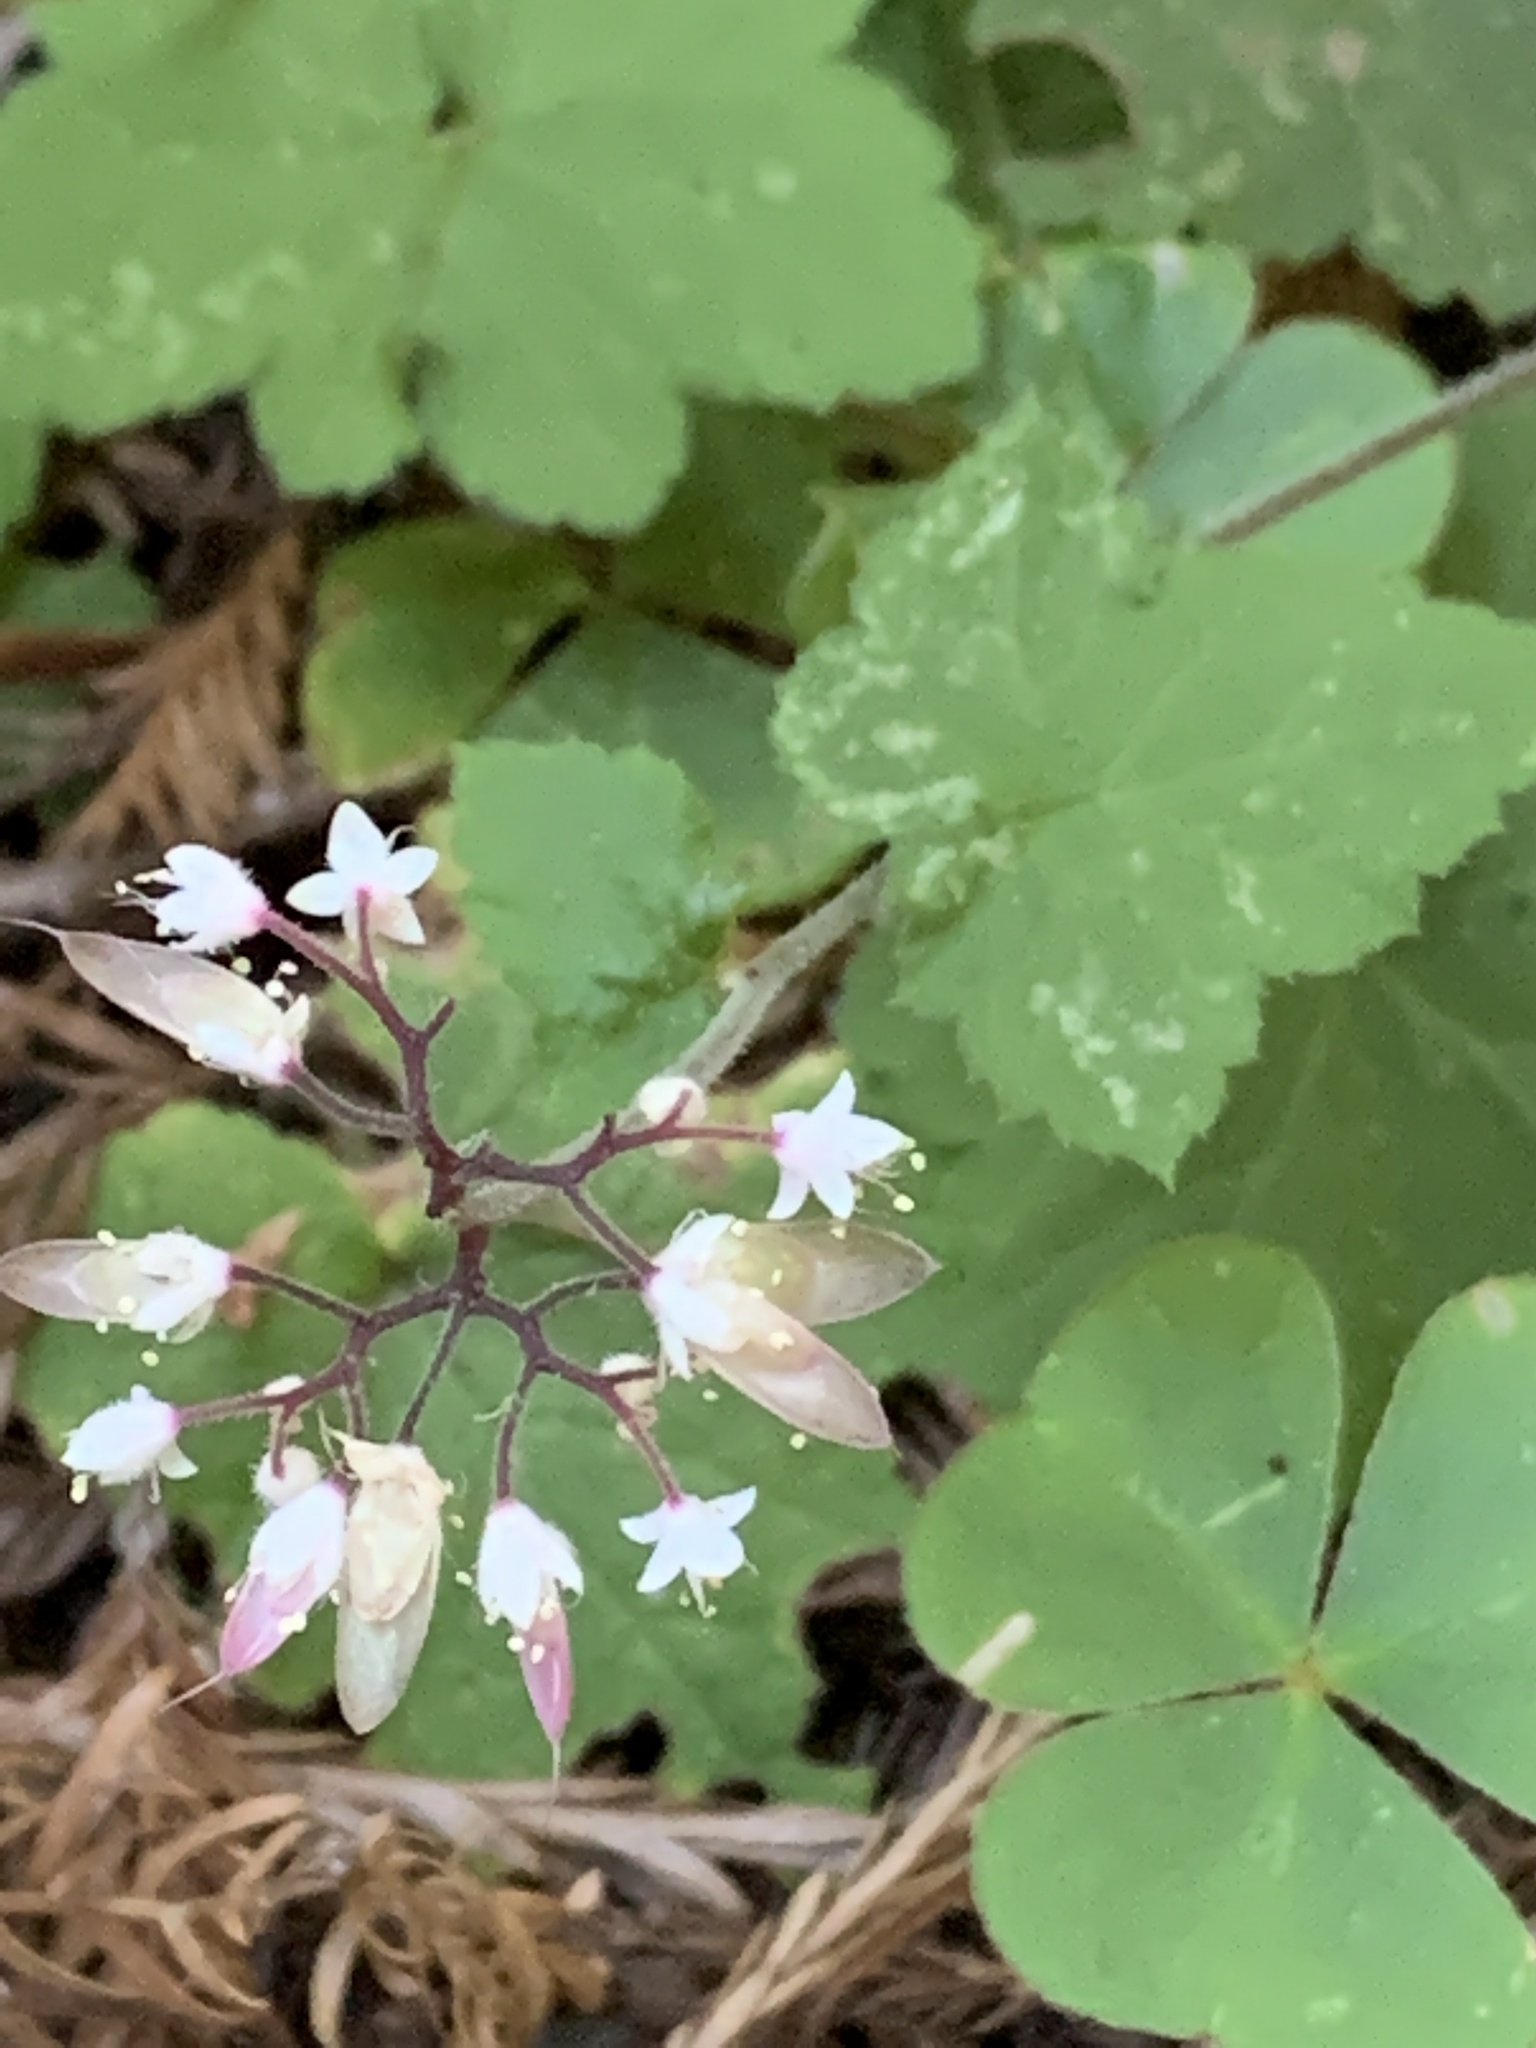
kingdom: Plantae
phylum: Tracheophyta
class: Magnoliopsida
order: Saxifragales
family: Saxifragaceae
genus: Tiarella
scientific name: Tiarella trifoliata
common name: Sugar-scoop
